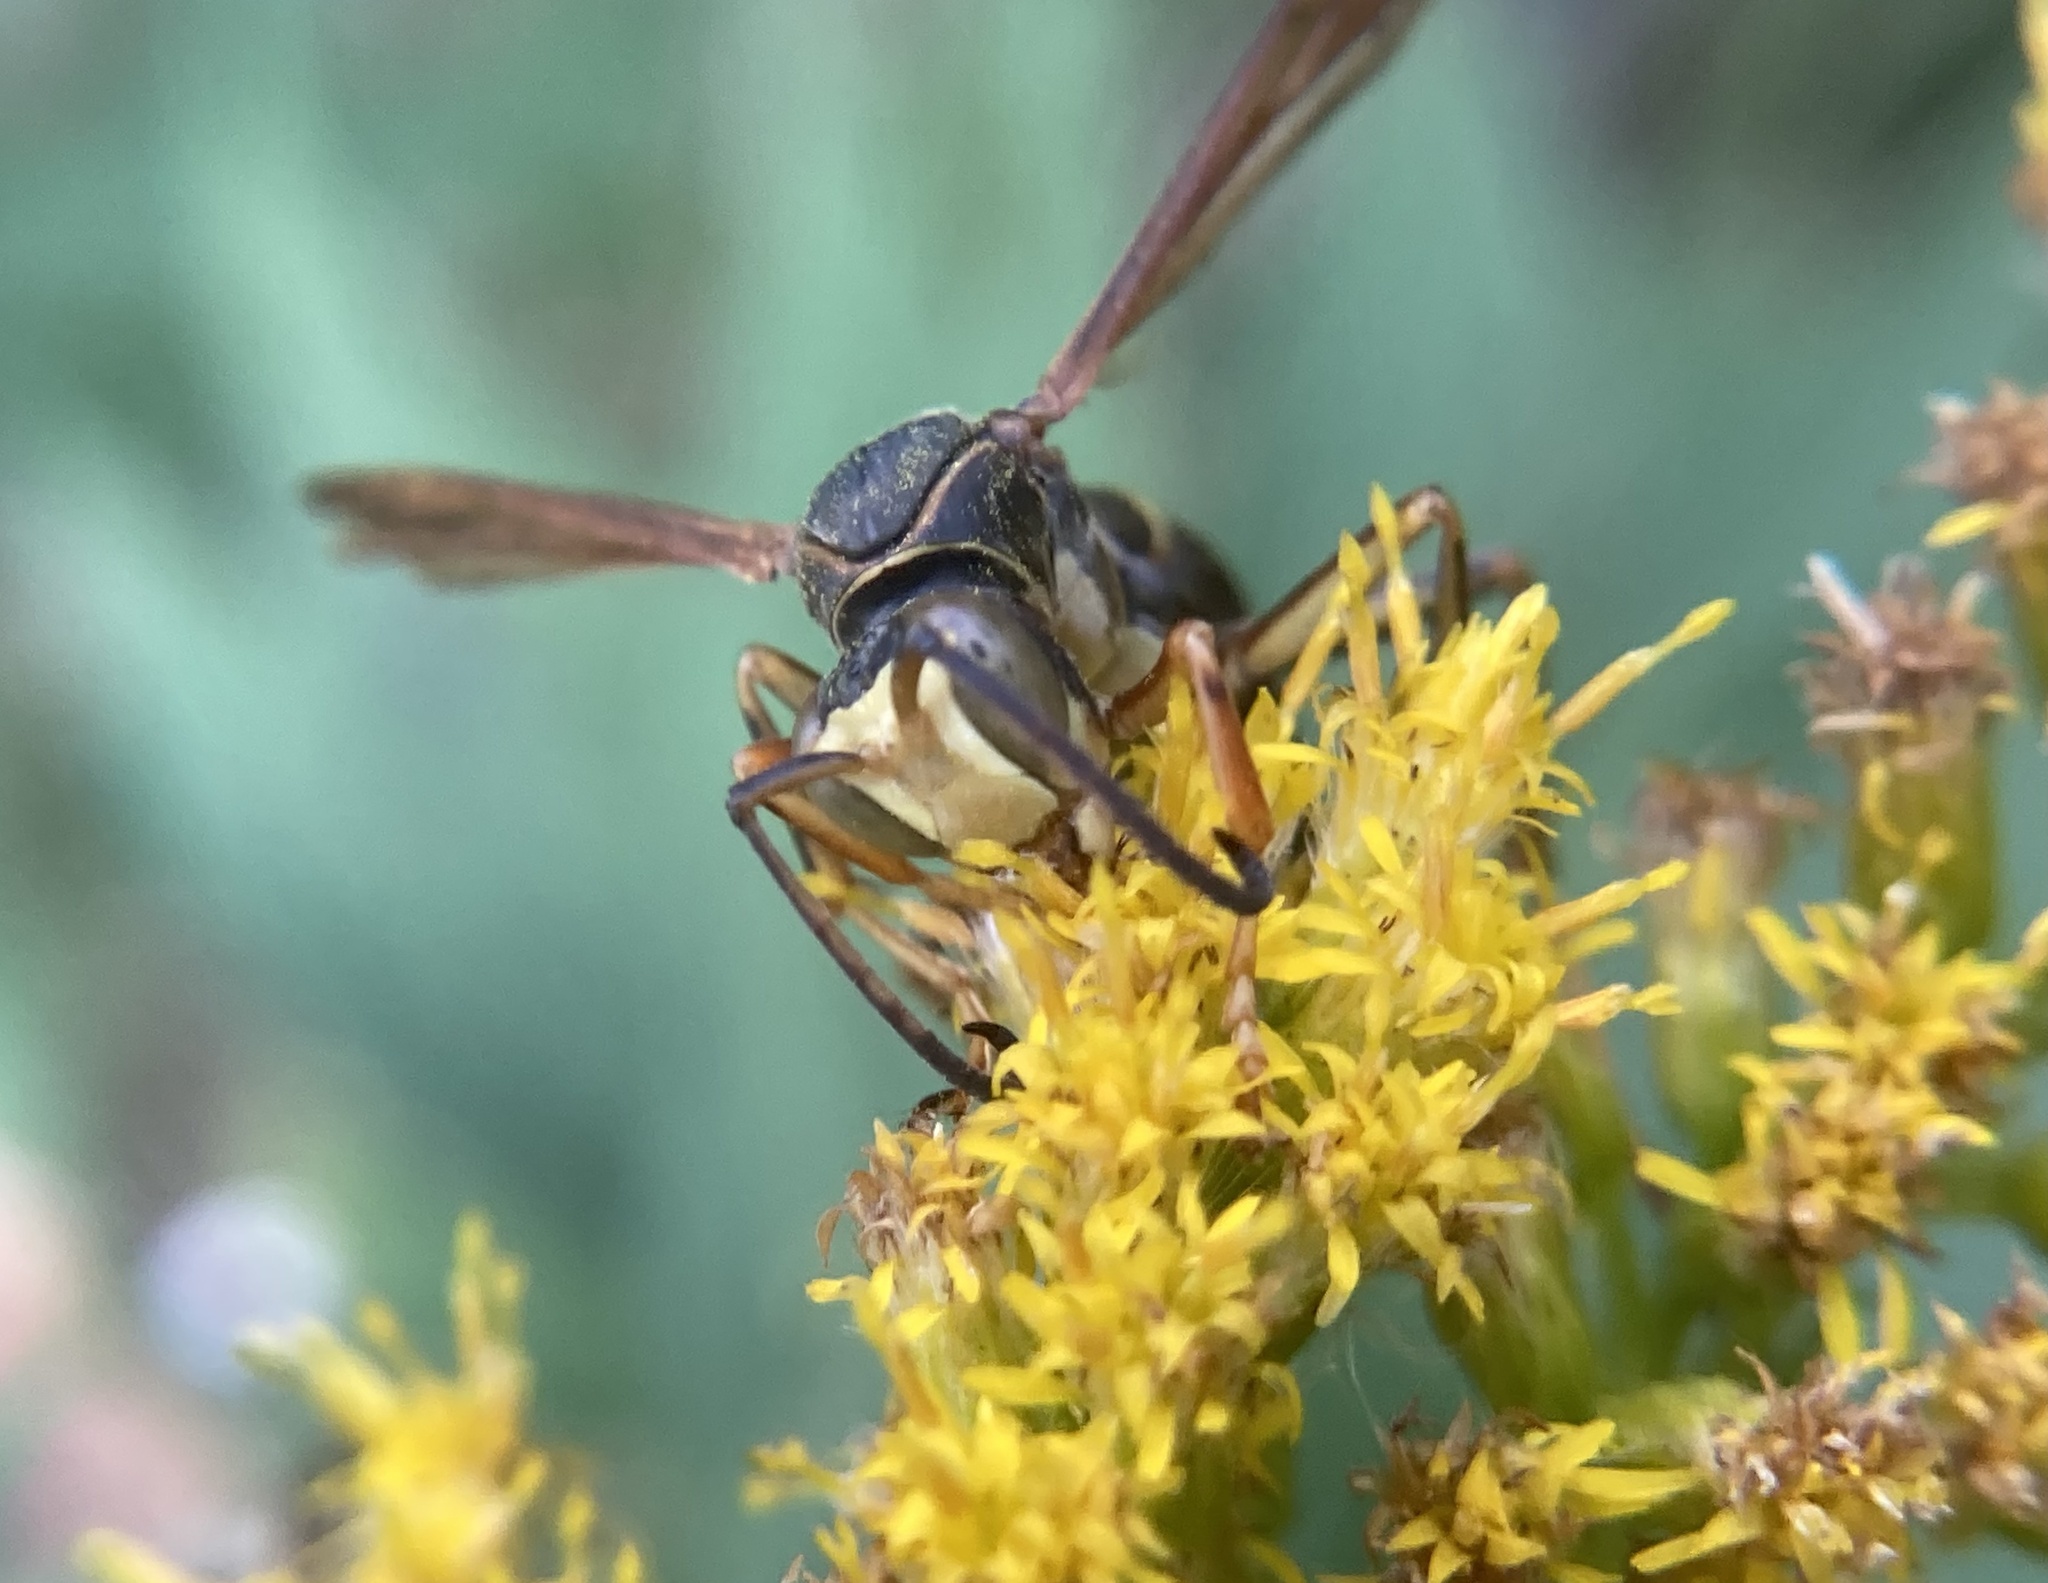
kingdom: Animalia
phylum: Arthropoda
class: Insecta
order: Hymenoptera
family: Eumenidae
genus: Polistes
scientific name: Polistes fuscatus
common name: Dark paper wasp
